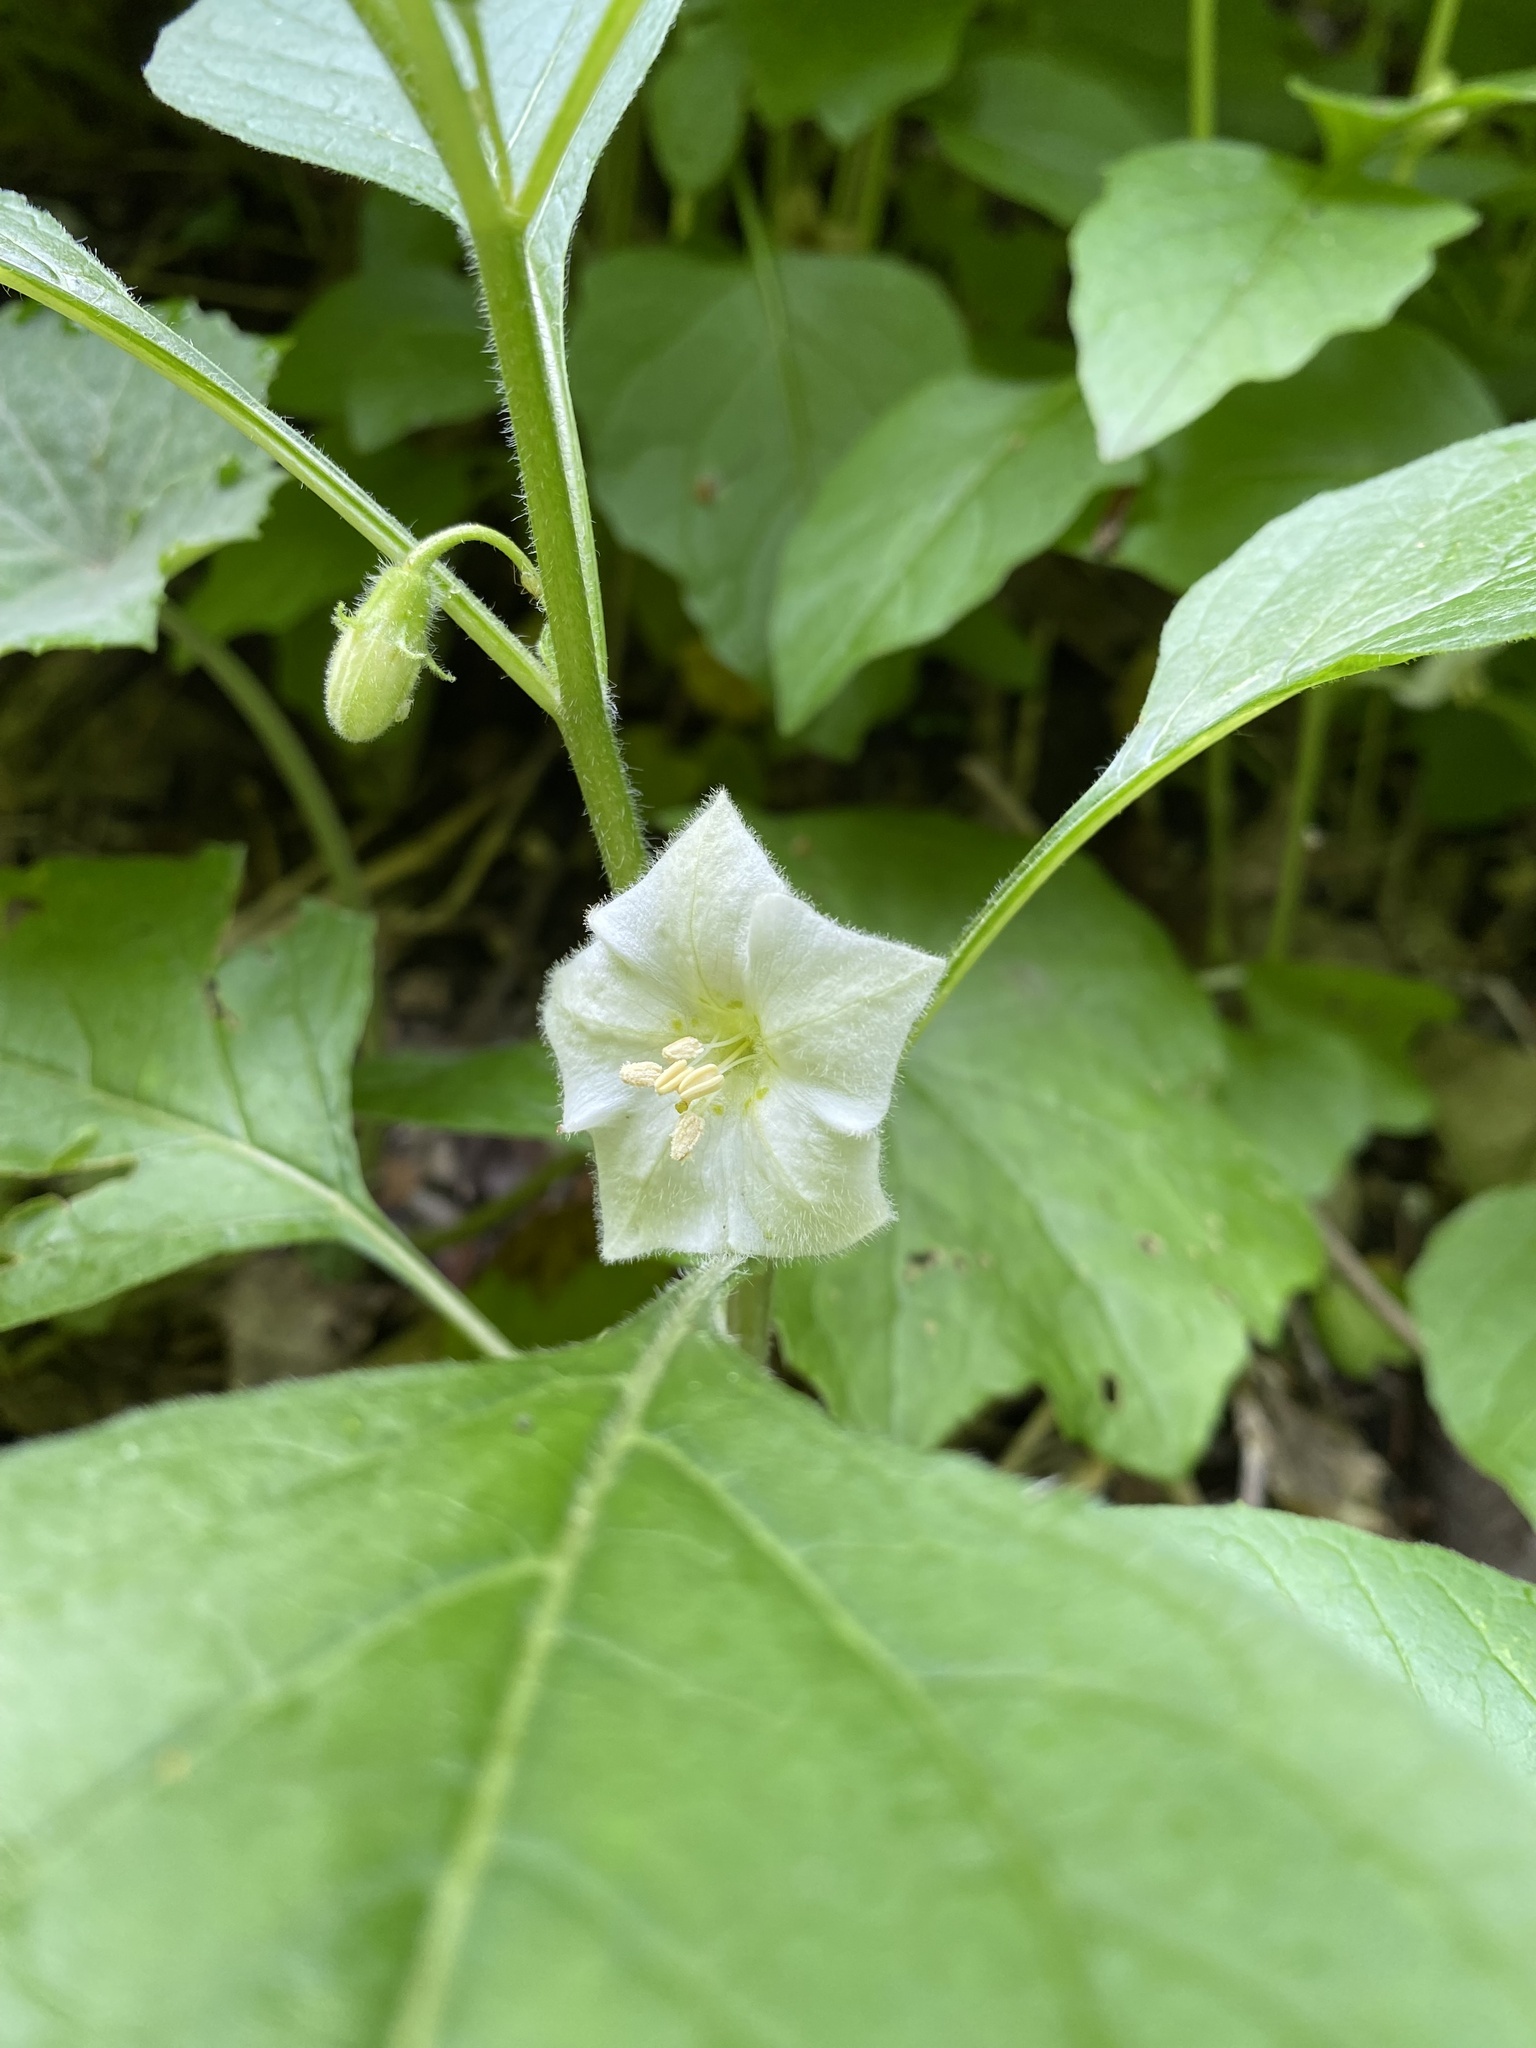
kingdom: Plantae
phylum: Tracheophyta
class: Magnoliopsida
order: Solanales
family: Solanaceae
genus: Alkekengi
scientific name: Alkekengi officinarum
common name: Japanese-lantern
